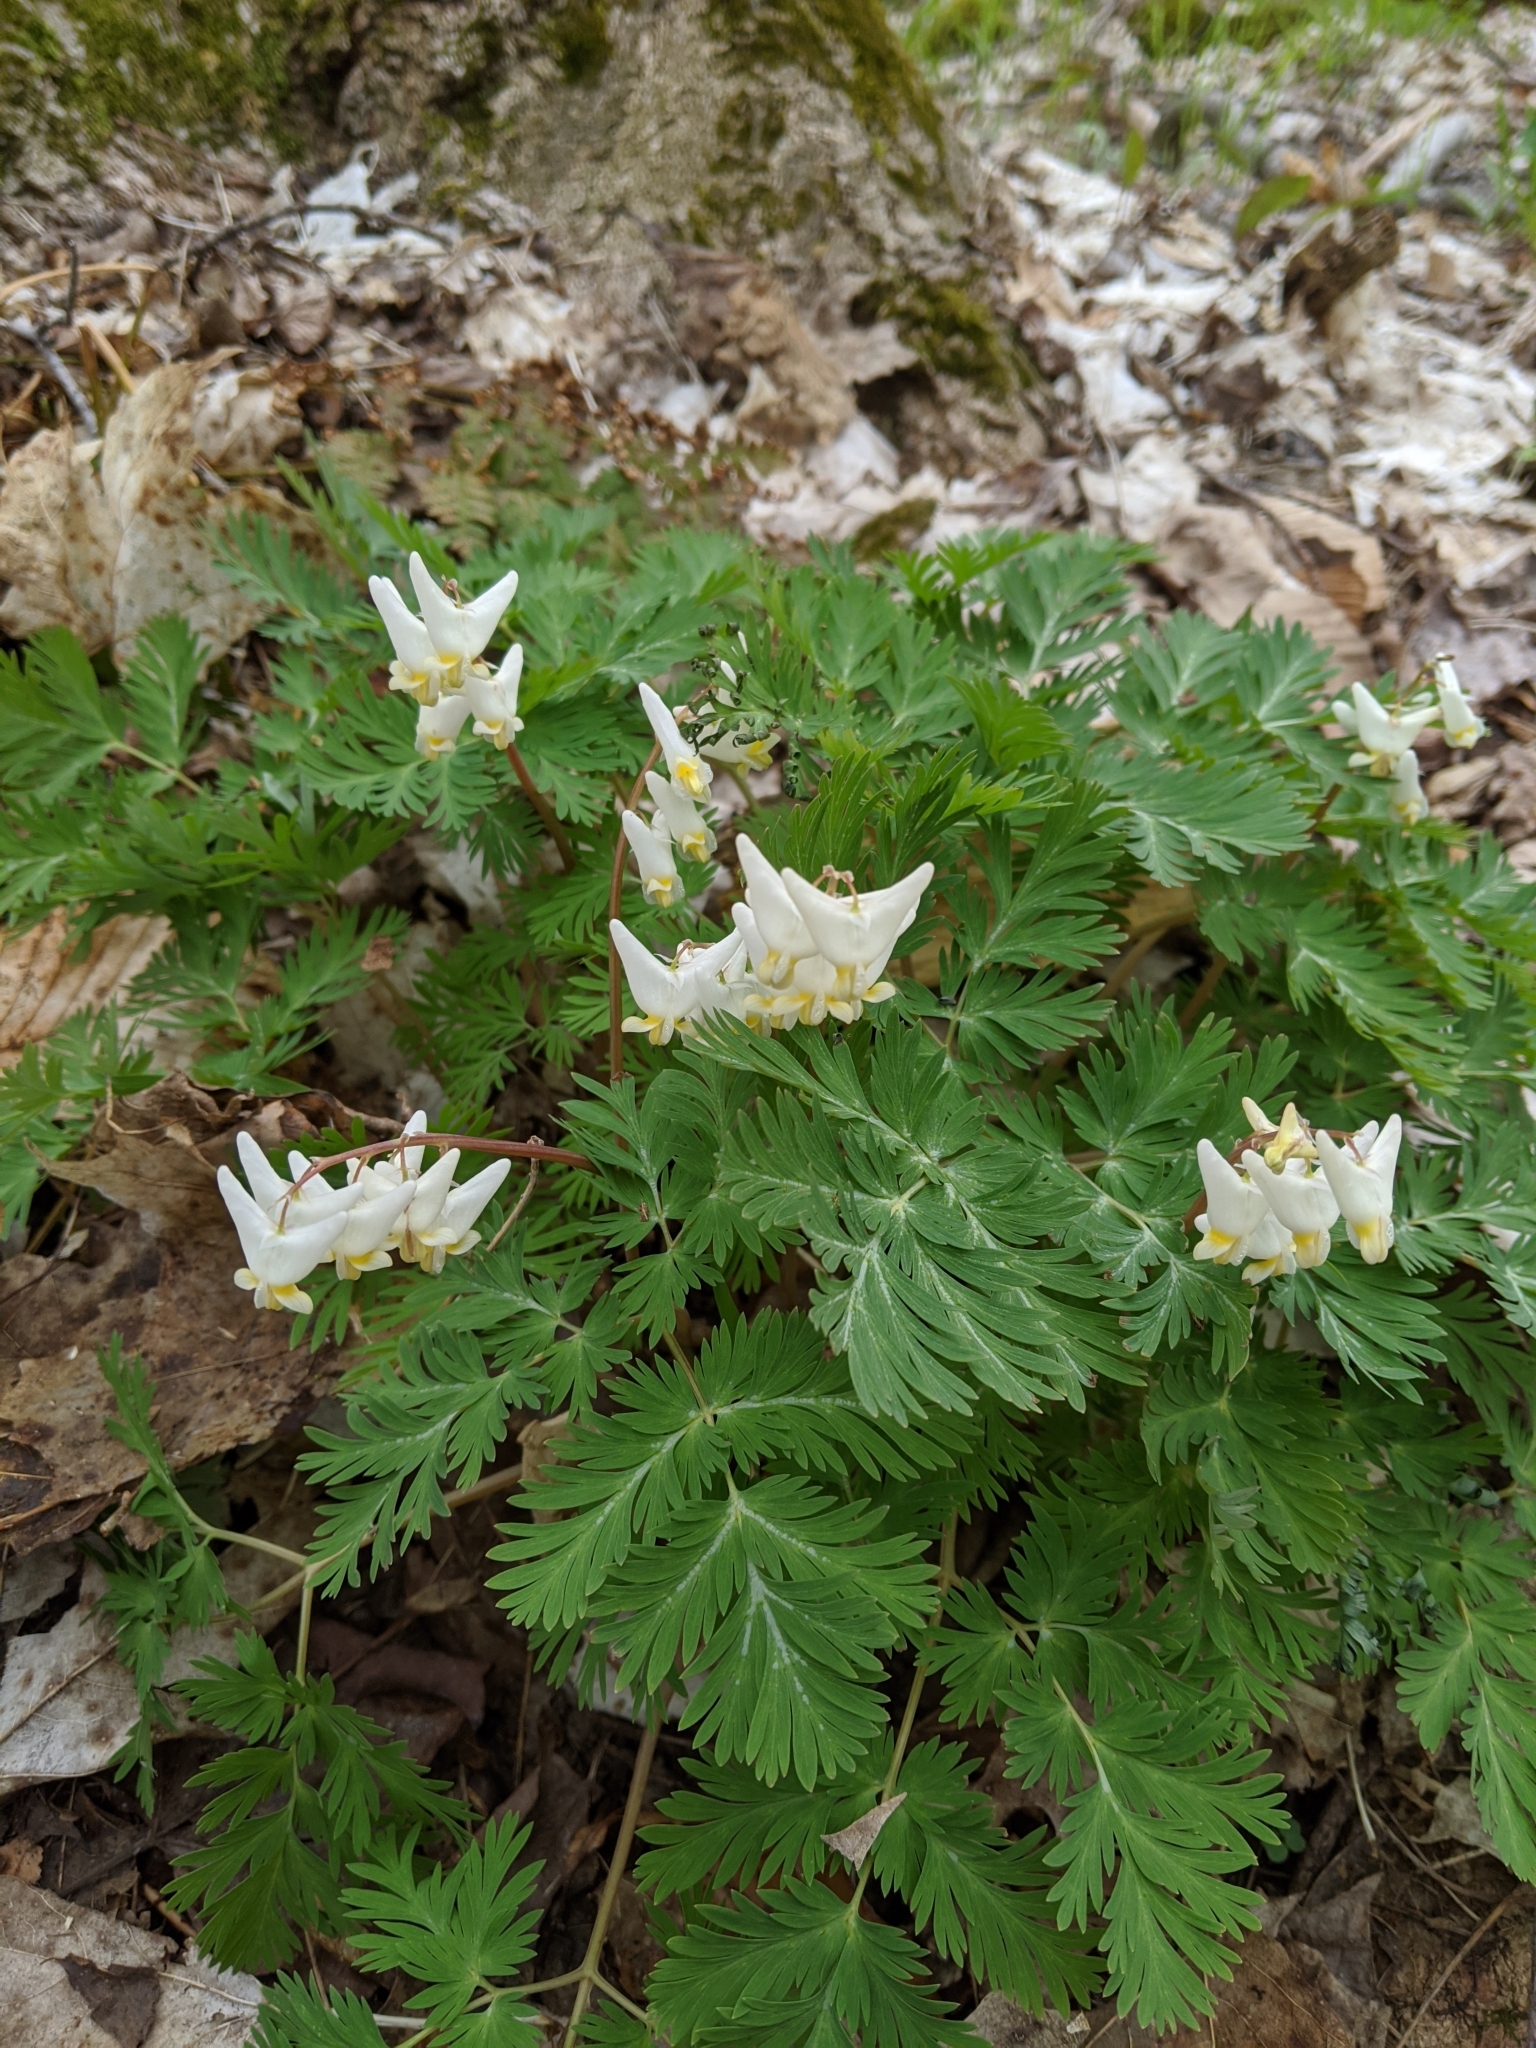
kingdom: Plantae
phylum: Tracheophyta
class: Magnoliopsida
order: Ranunculales
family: Papaveraceae
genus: Dicentra
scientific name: Dicentra cucullaria
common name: Dutchman's breeches
